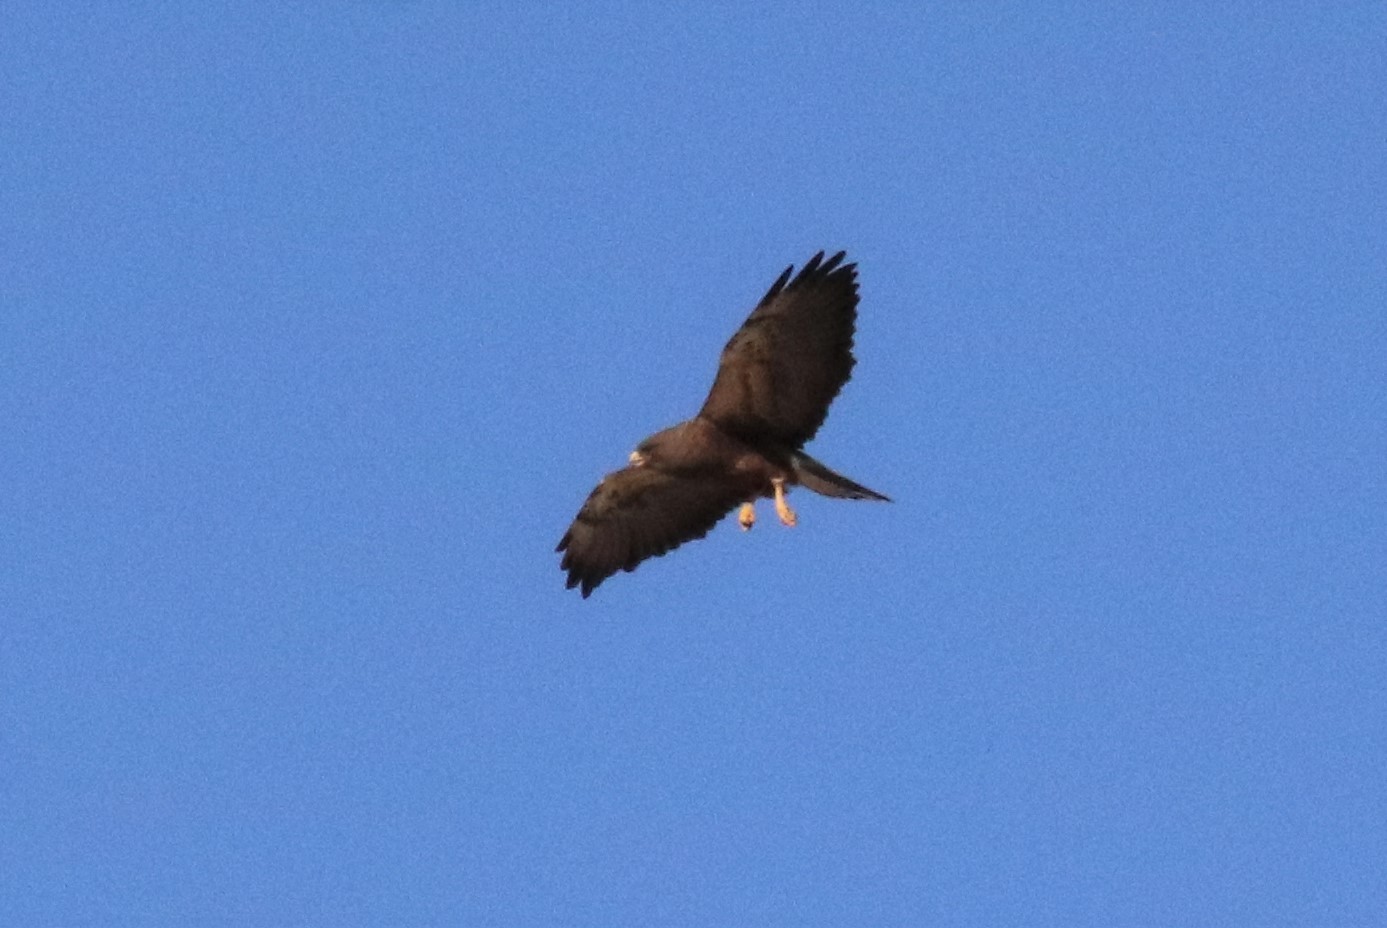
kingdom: Animalia
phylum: Chordata
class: Aves
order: Accipitriformes
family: Accipitridae
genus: Buteo
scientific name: Buteo swainsoni
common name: Swainson's hawk
